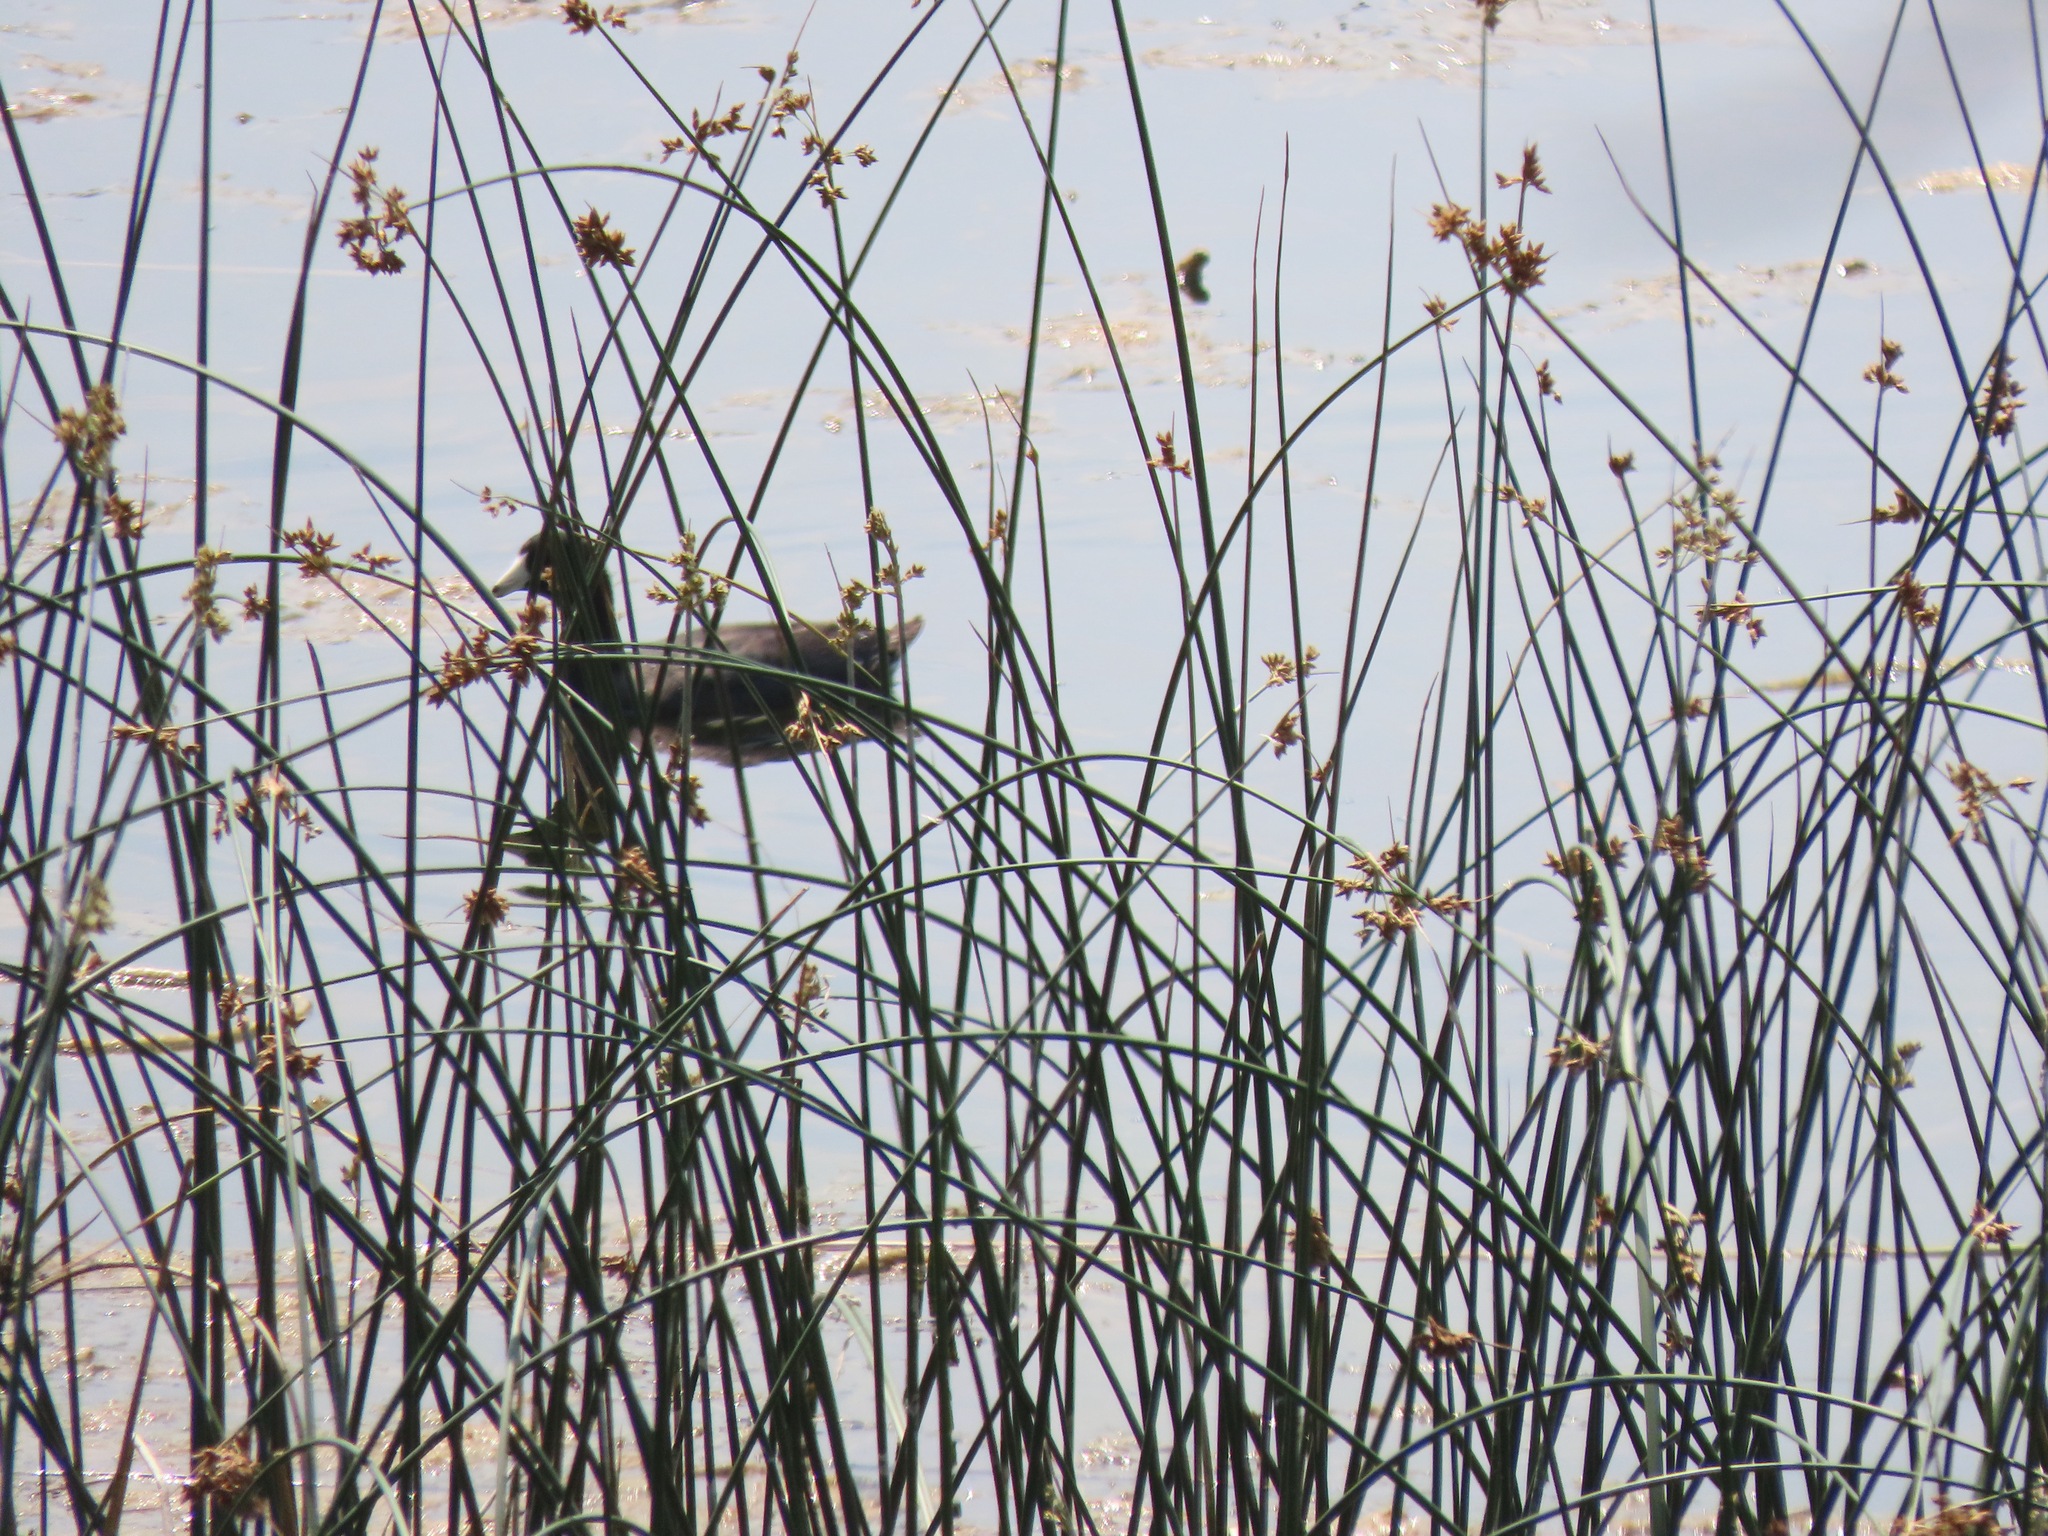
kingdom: Animalia
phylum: Chordata
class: Aves
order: Gruiformes
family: Rallidae
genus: Fulica
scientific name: Fulica americana
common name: American coot
